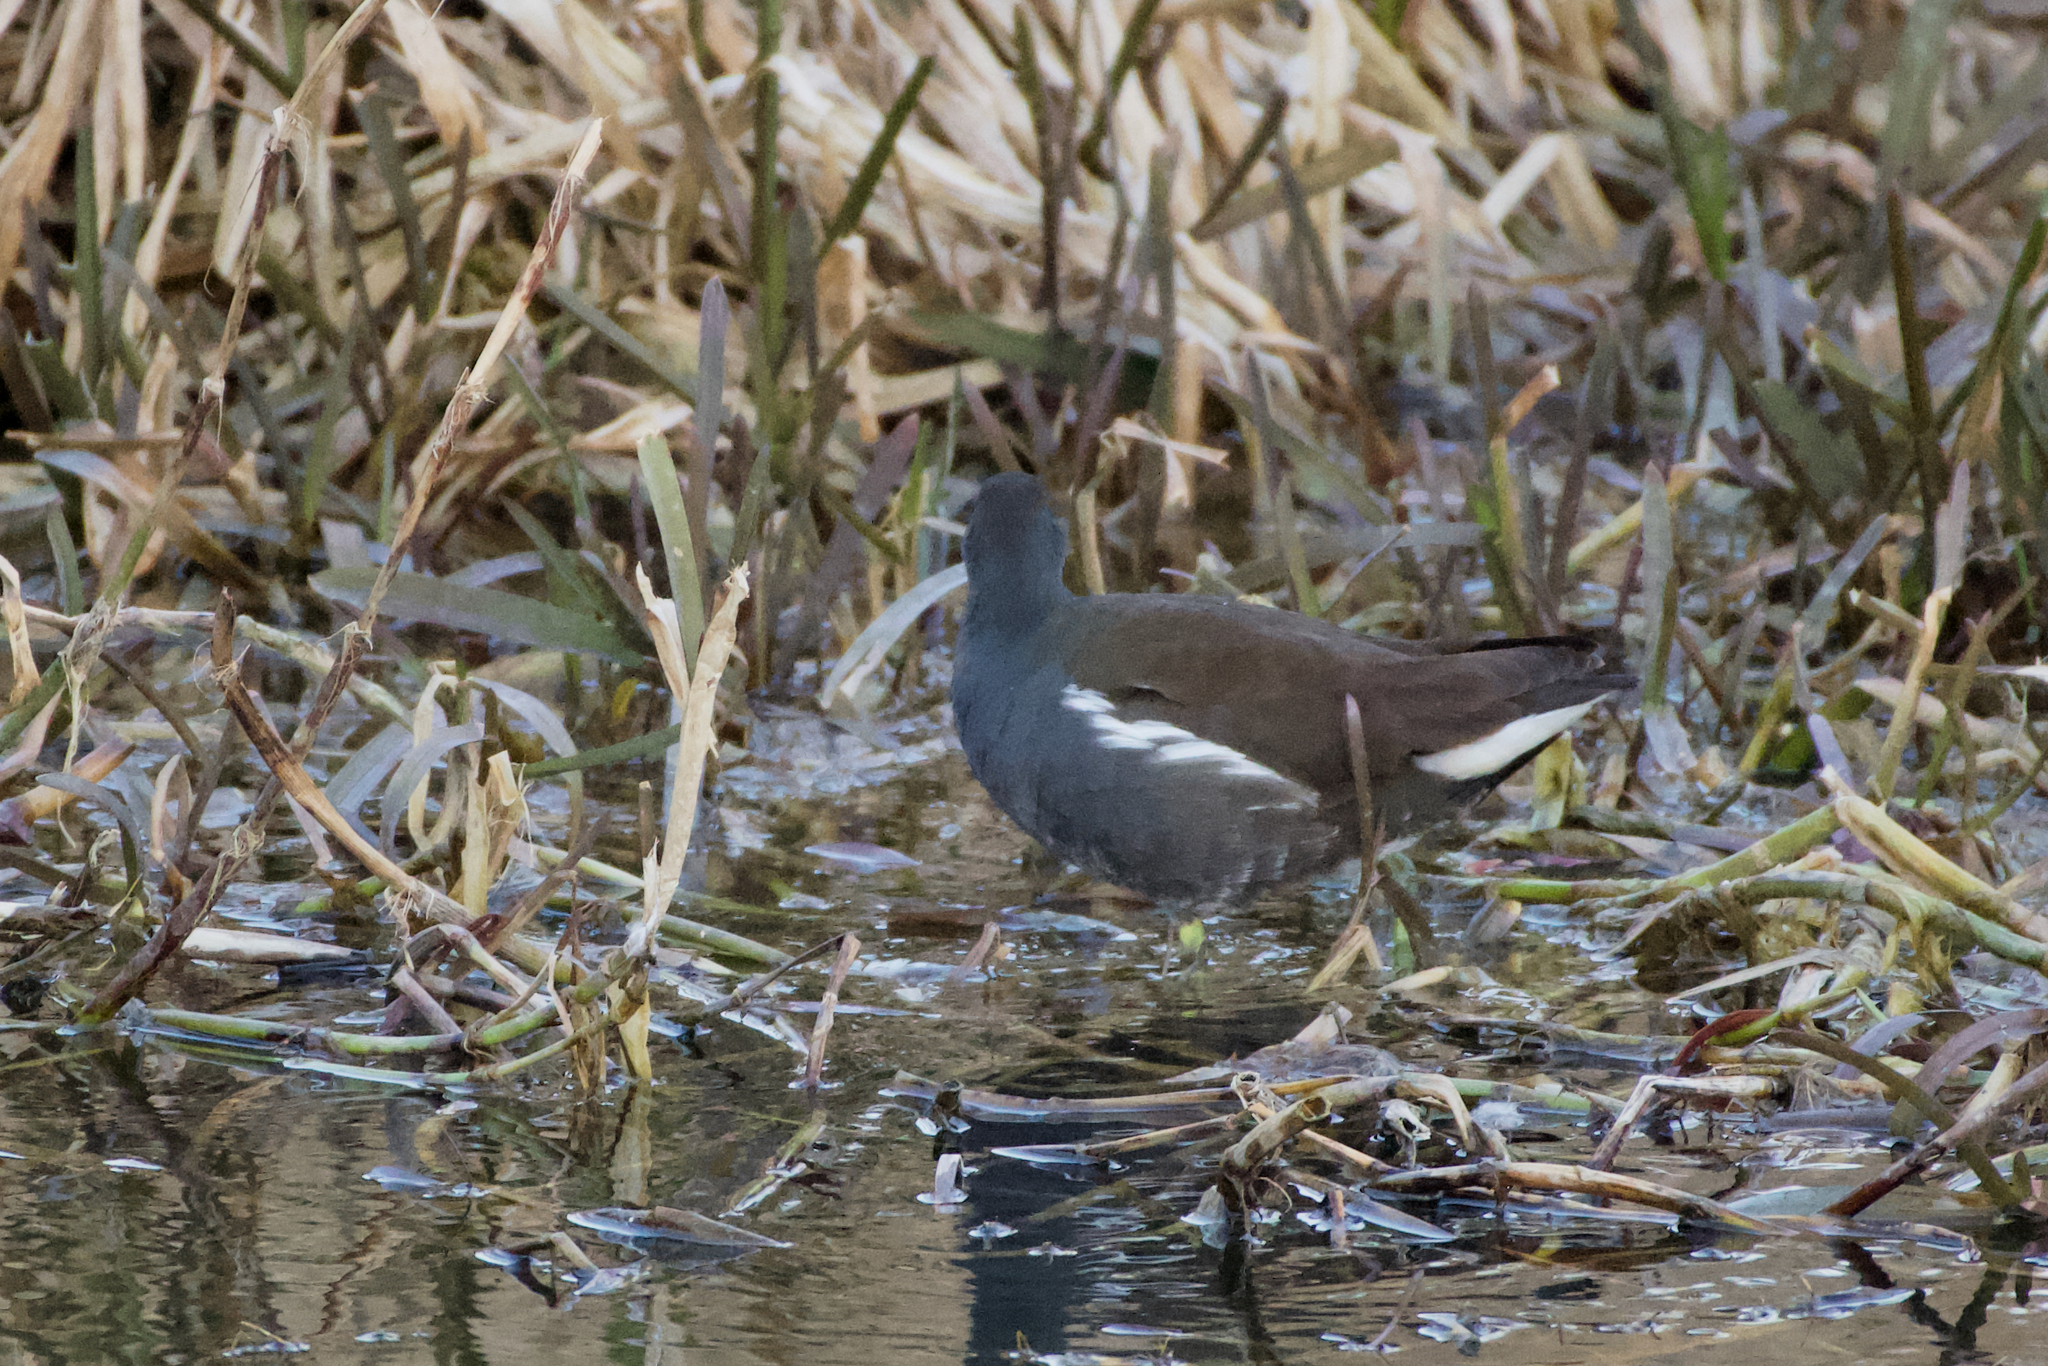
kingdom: Animalia
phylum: Chordata
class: Aves
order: Gruiformes
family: Rallidae
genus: Gallinula
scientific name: Gallinula chloropus
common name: Common moorhen
